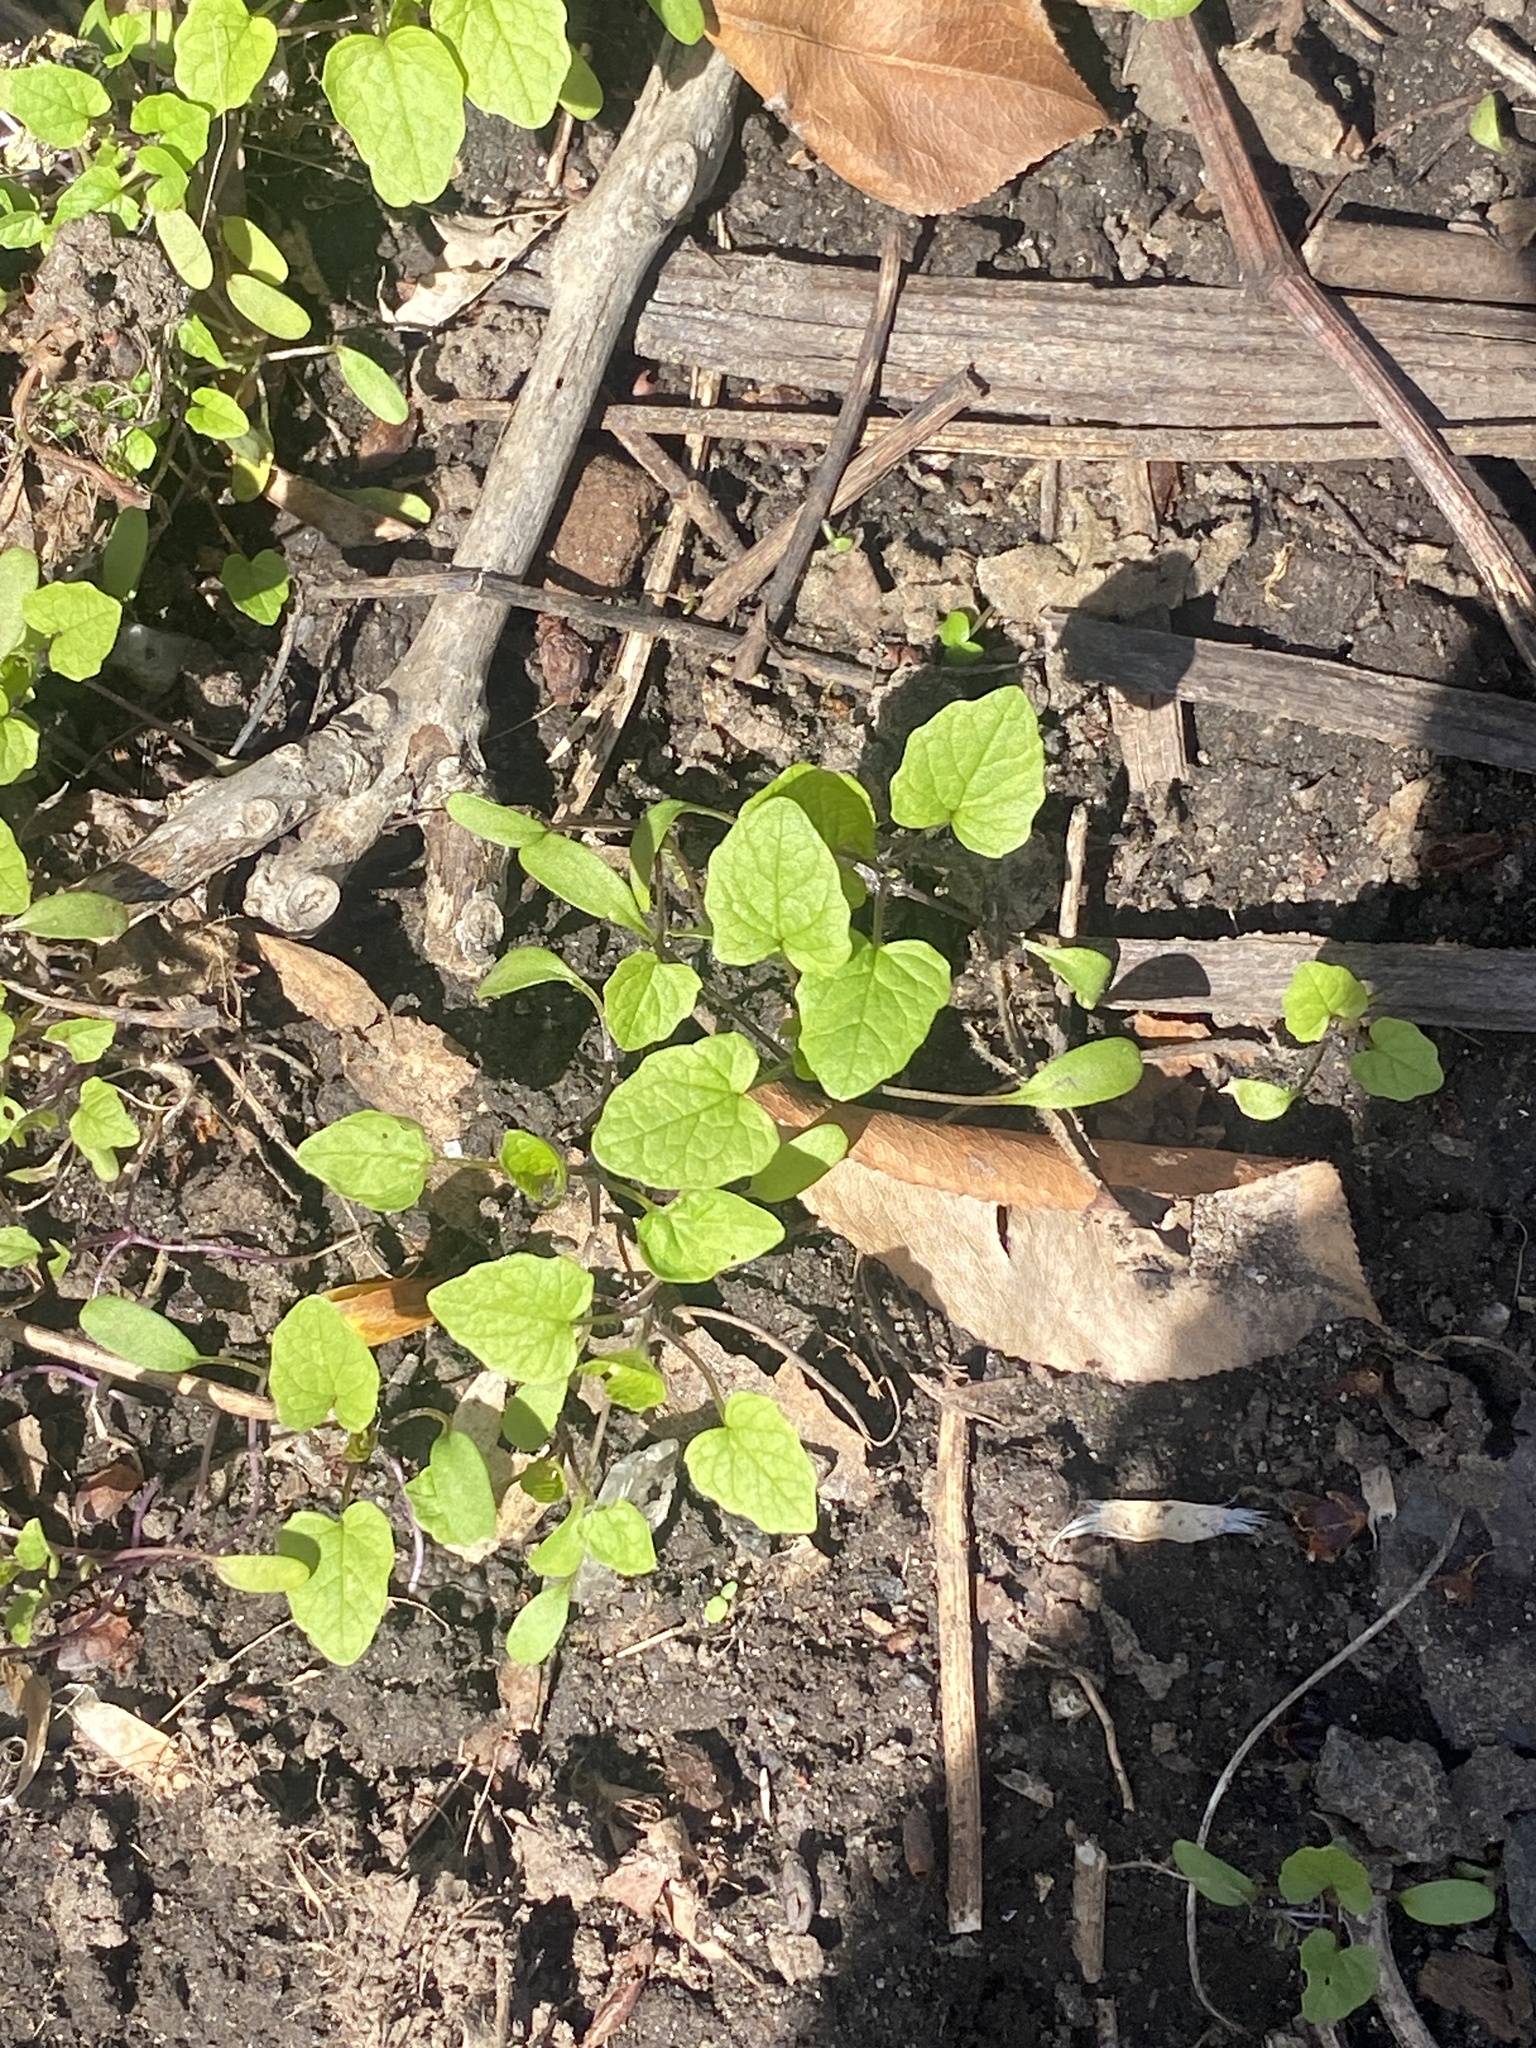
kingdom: Plantae
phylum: Tracheophyta
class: Magnoliopsida
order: Brassicales
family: Brassicaceae
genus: Alliaria
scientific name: Alliaria petiolata
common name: Garlic mustard
